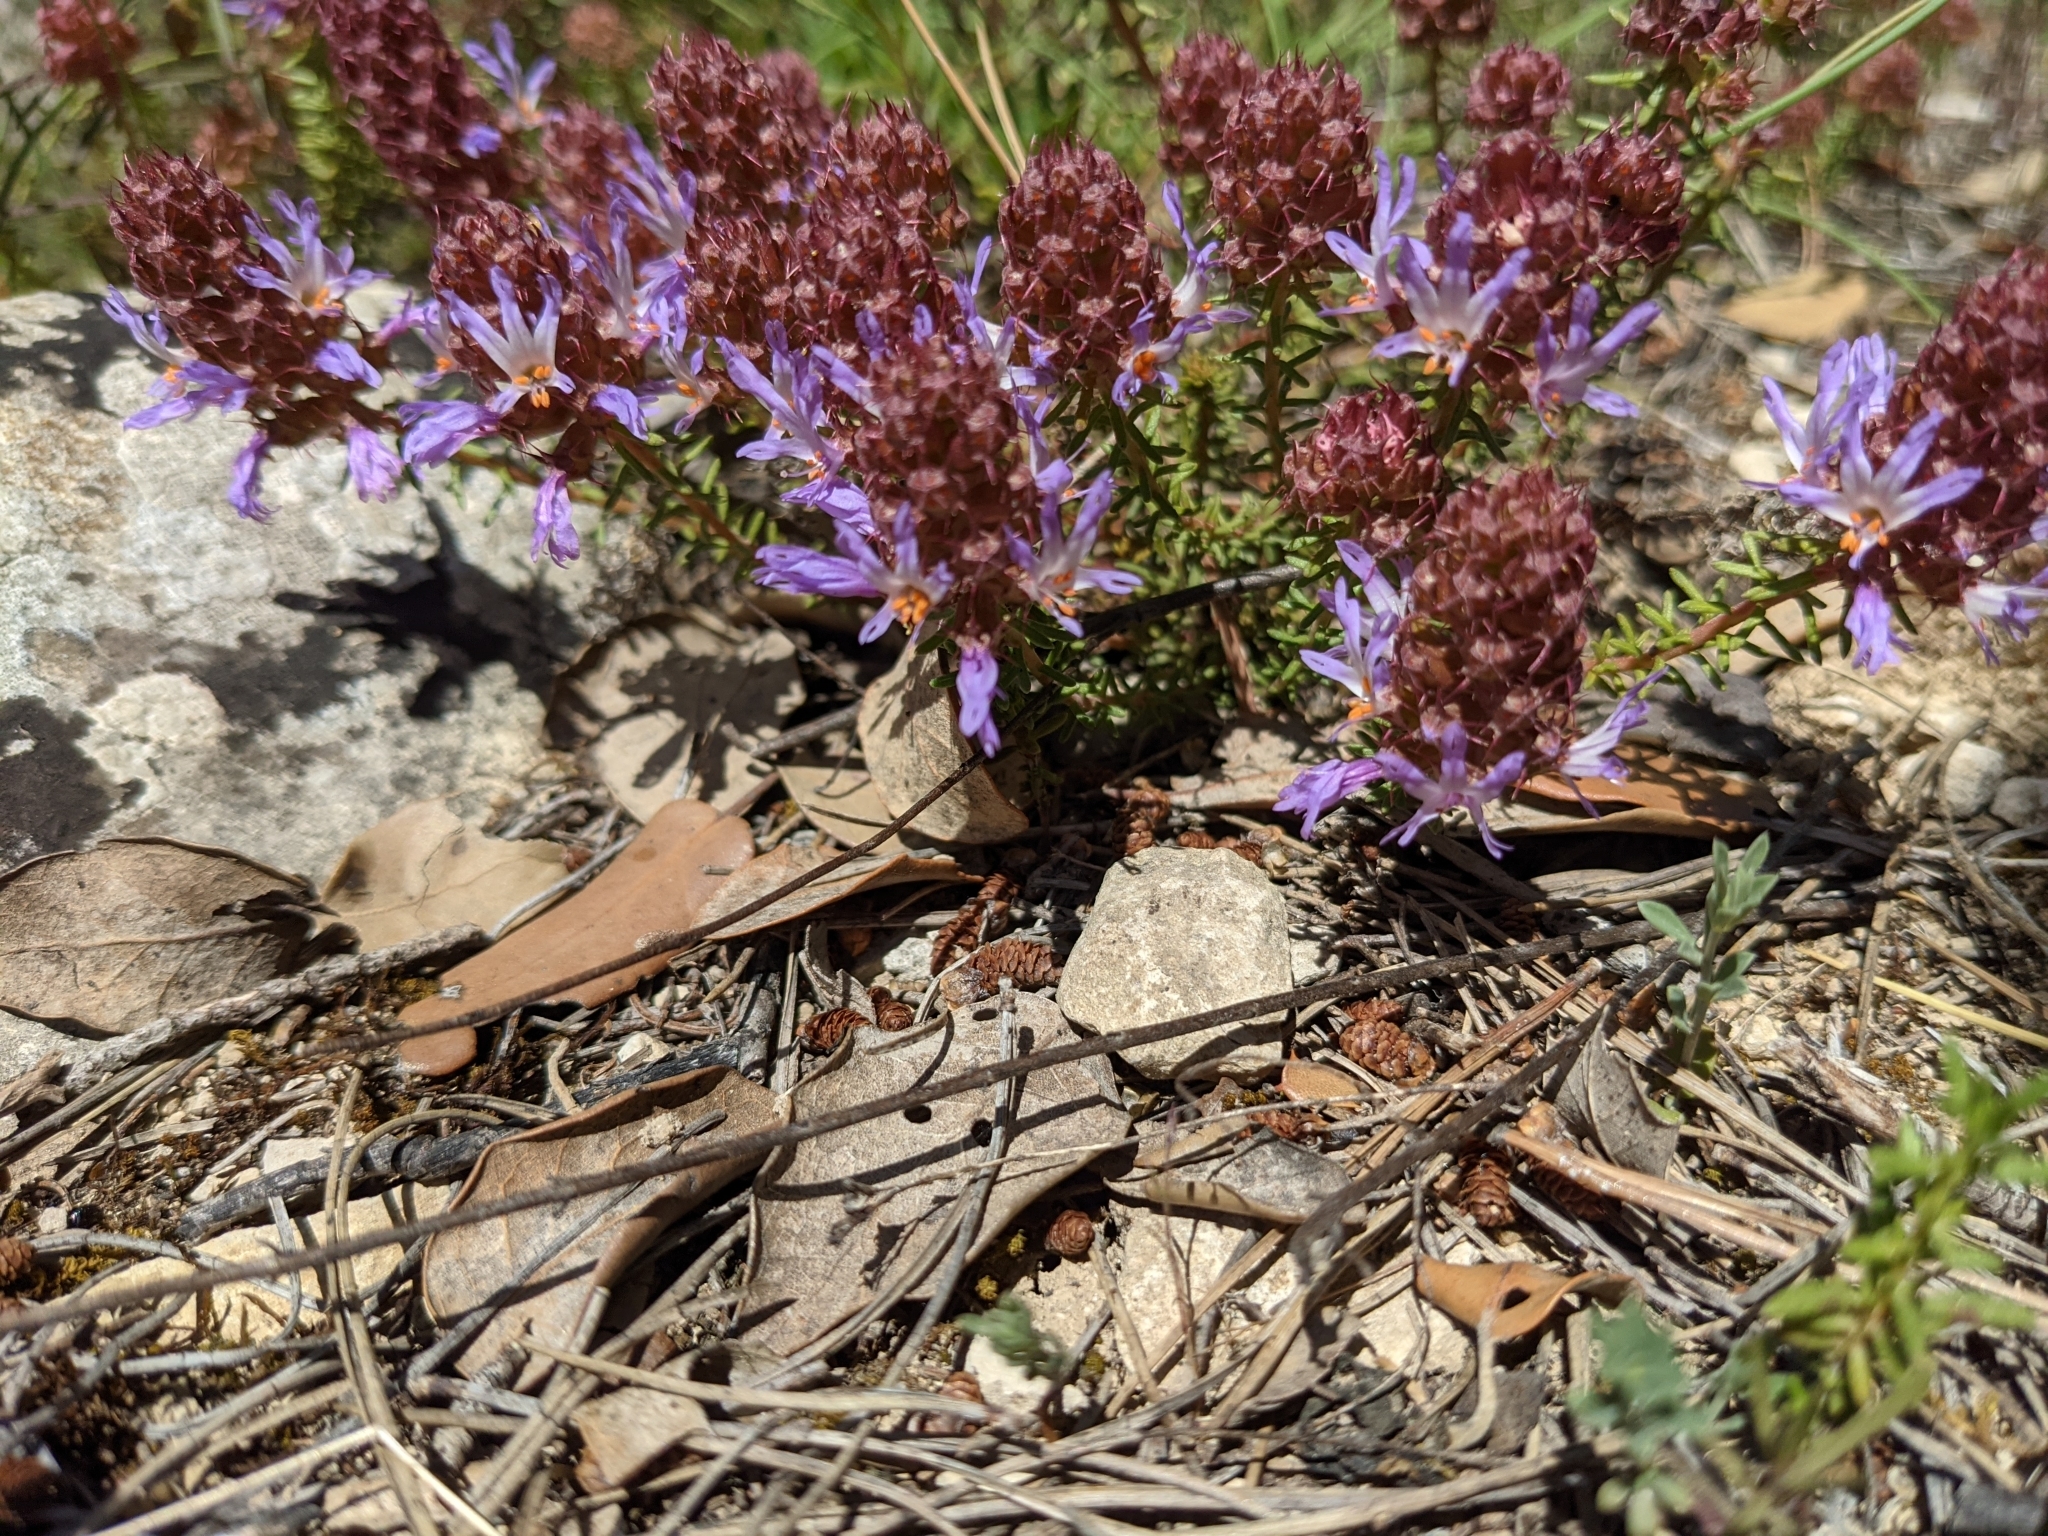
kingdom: Plantae
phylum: Tracheophyta
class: Magnoliopsida
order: Ericales
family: Primulaceae
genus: Coris
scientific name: Coris monspeliensis
